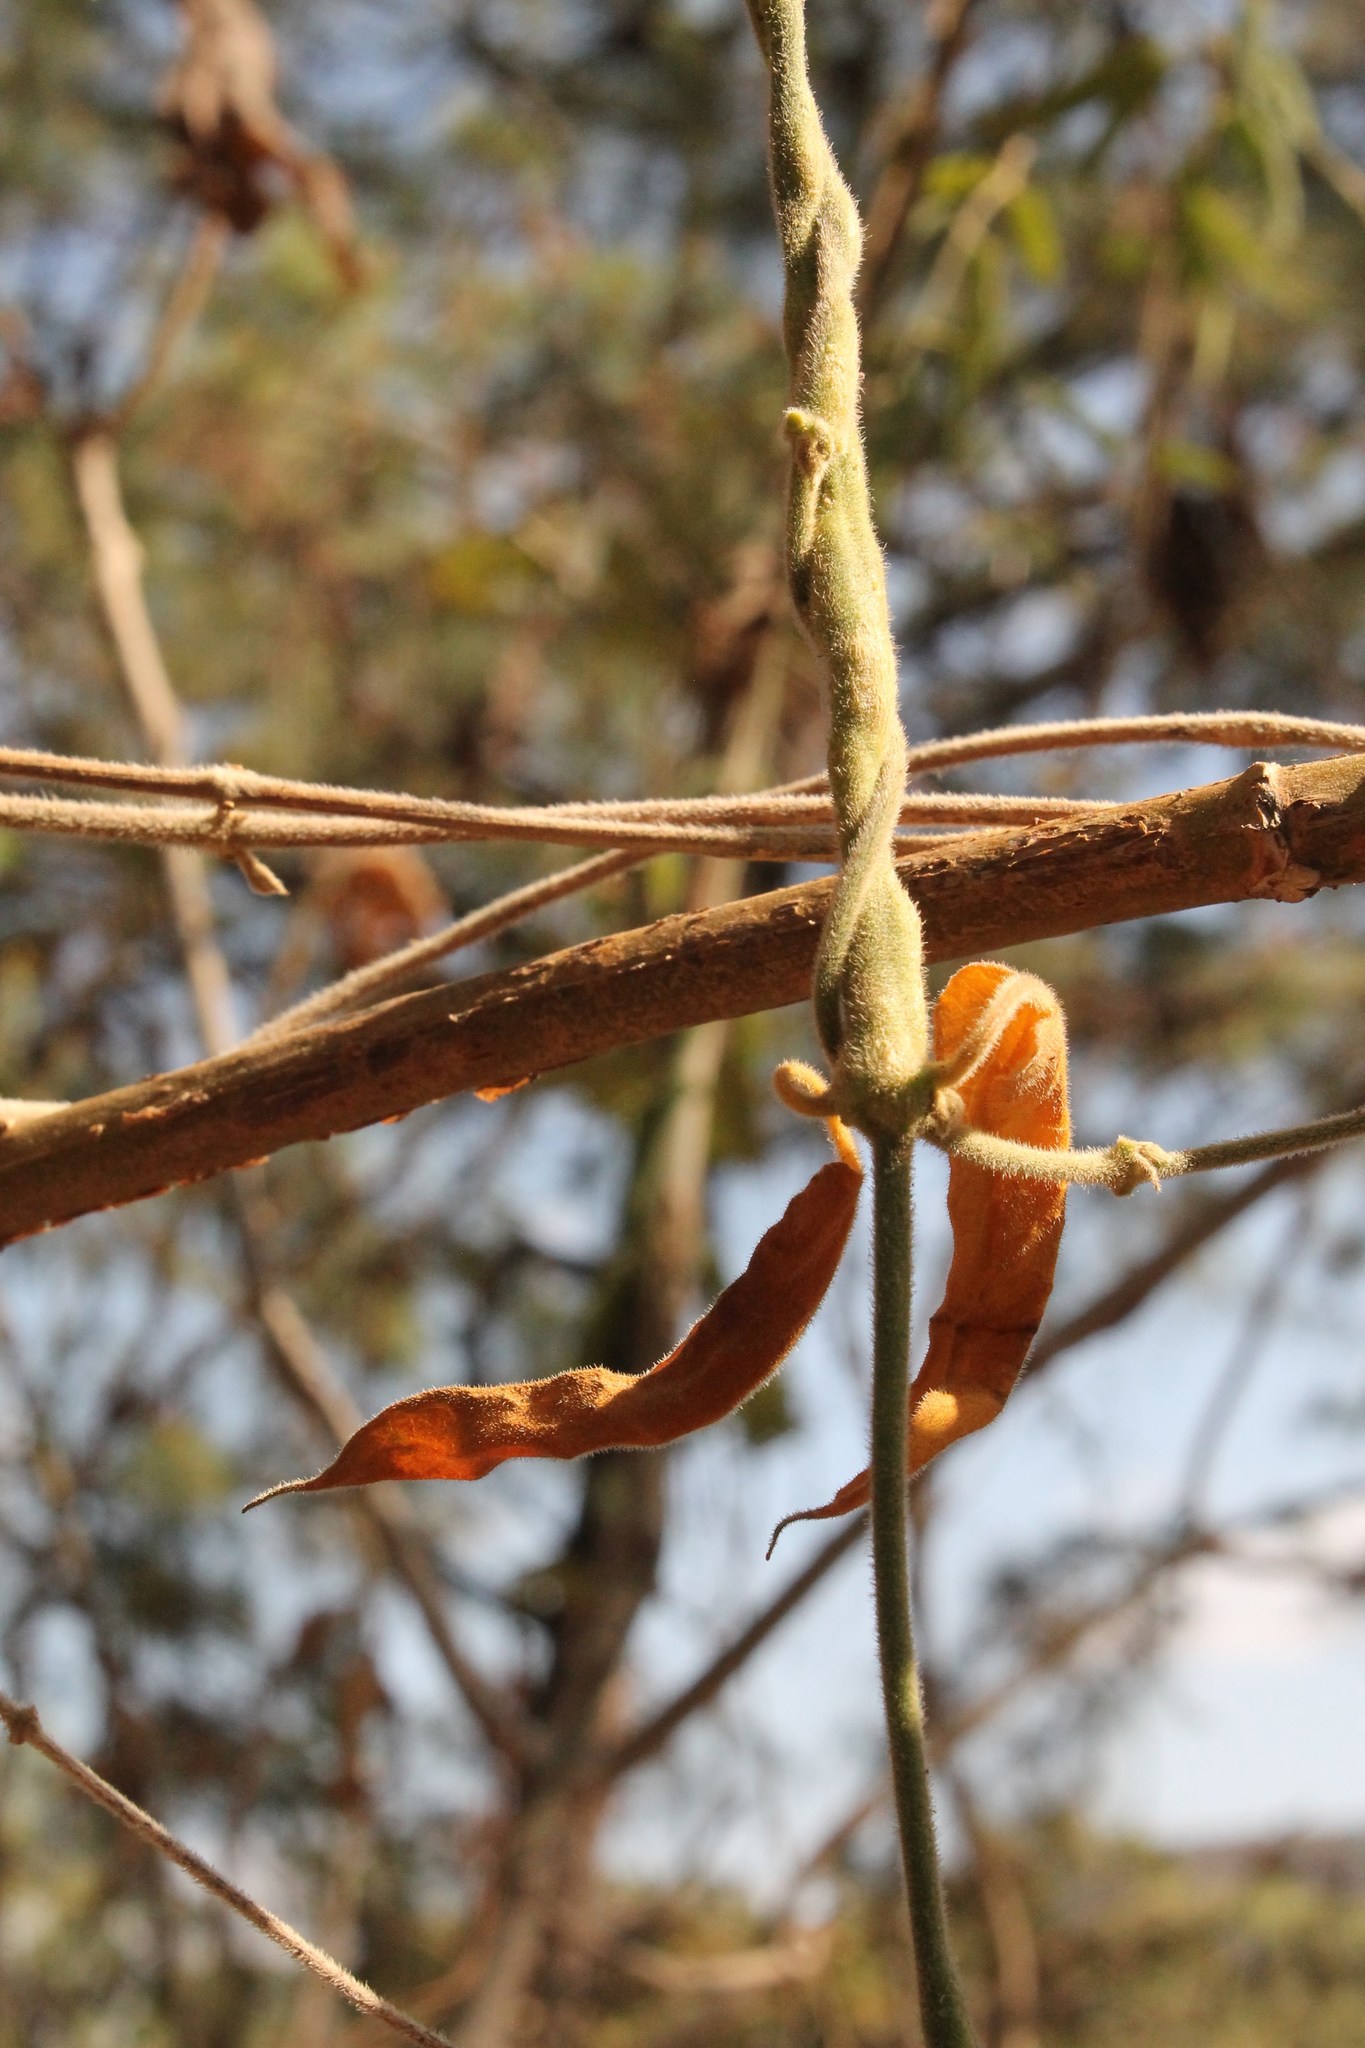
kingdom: Plantae
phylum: Tracheophyta
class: Magnoliopsida
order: Gentianales
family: Apocynaceae
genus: Gonolobus
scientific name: Gonolobus jaliscensis
